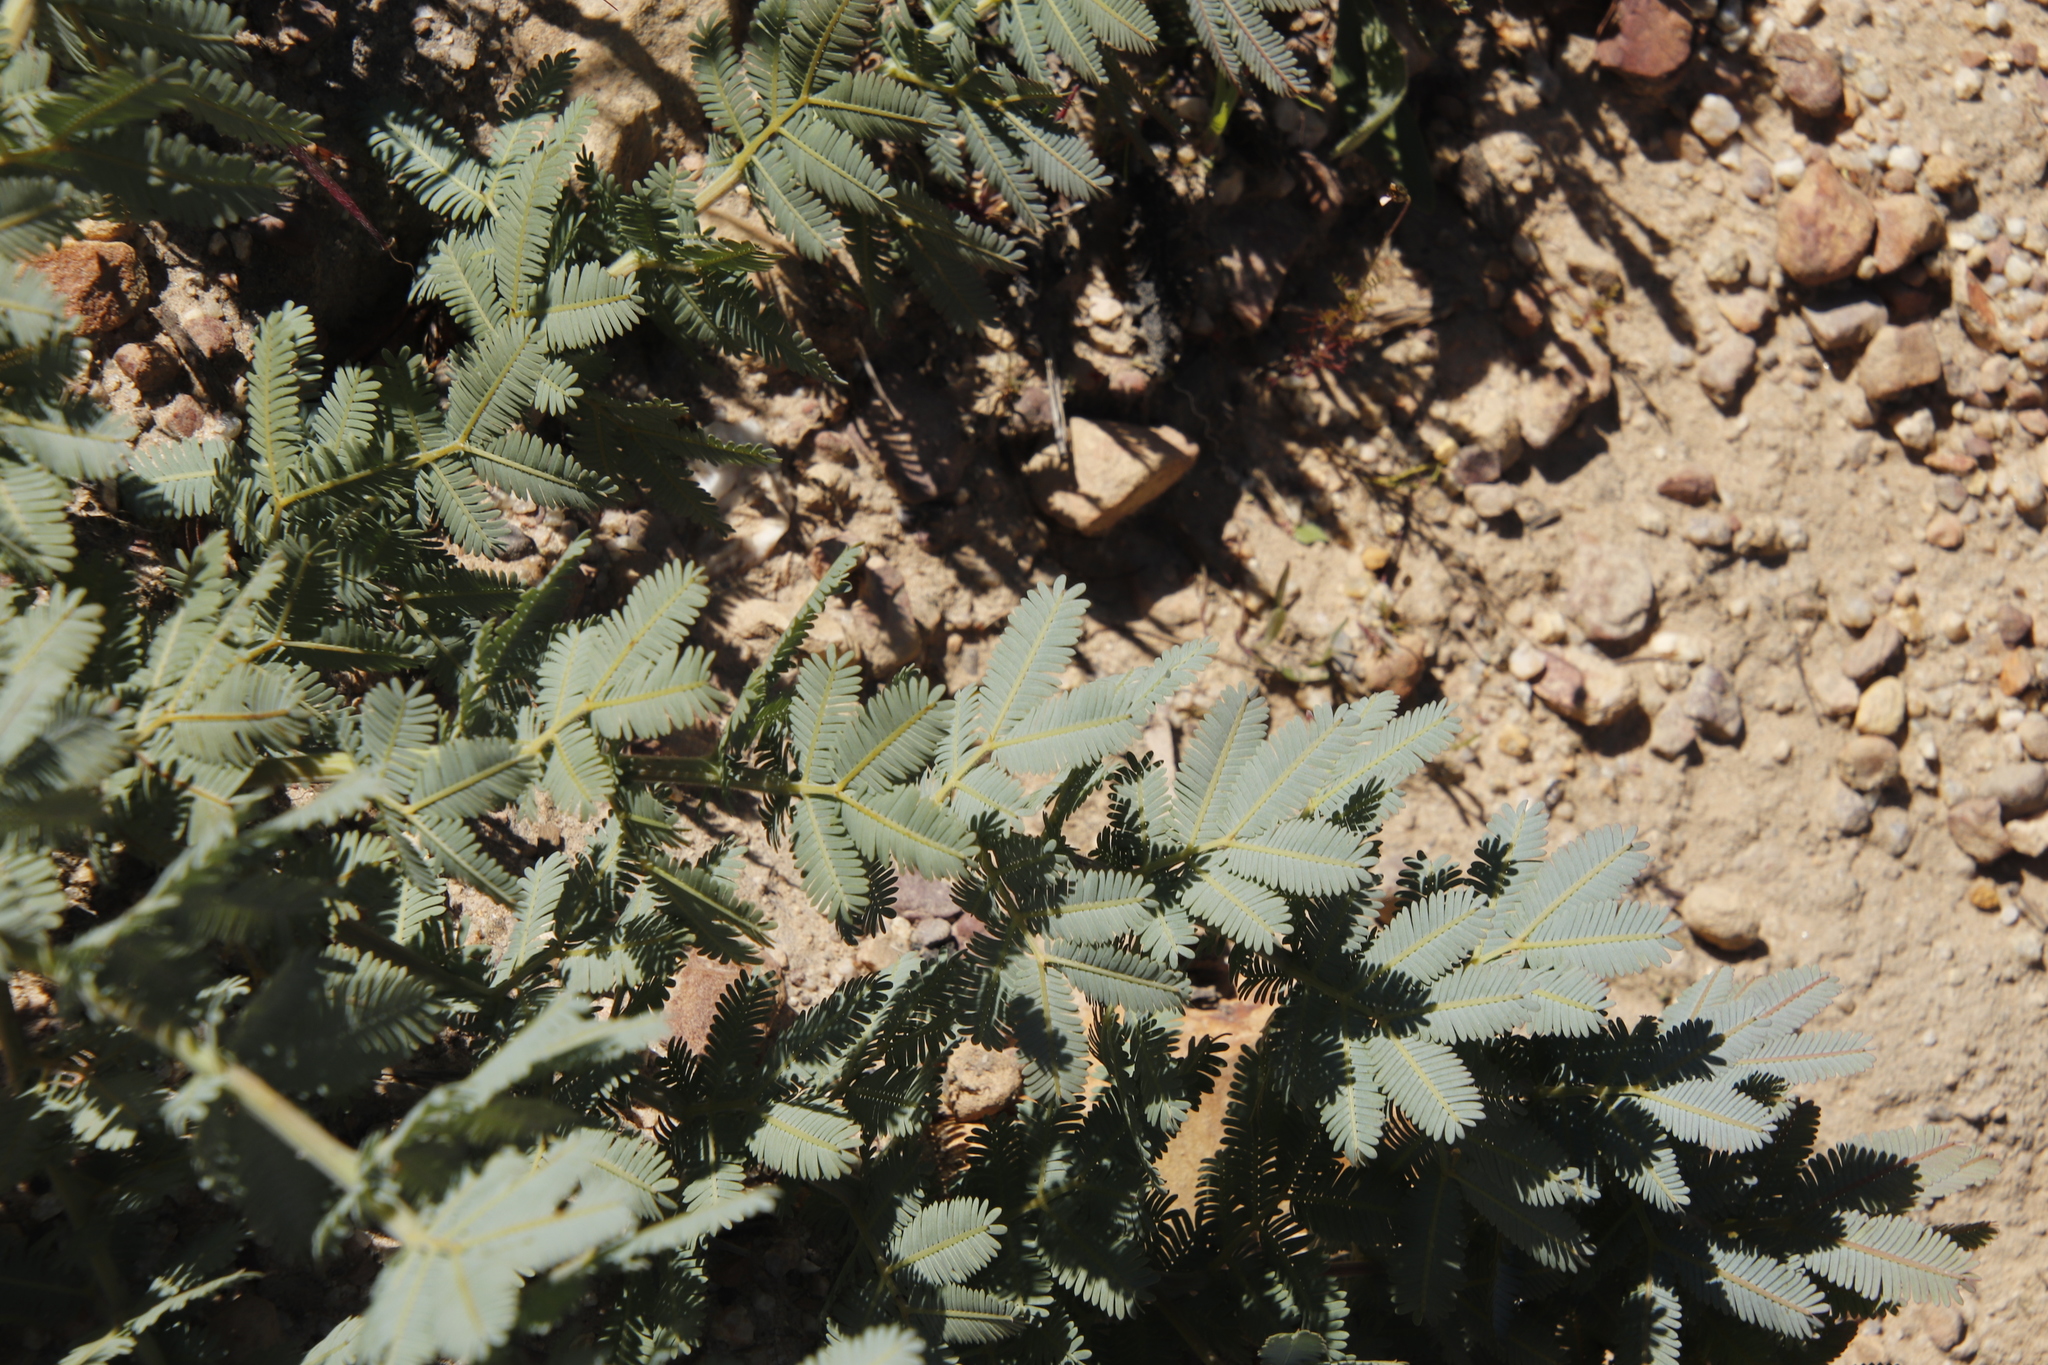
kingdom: Plantae
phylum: Tracheophyta
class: Magnoliopsida
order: Fabales
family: Fabaceae
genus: Acacia
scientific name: Acacia baileyana
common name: Cootamundra wattle
